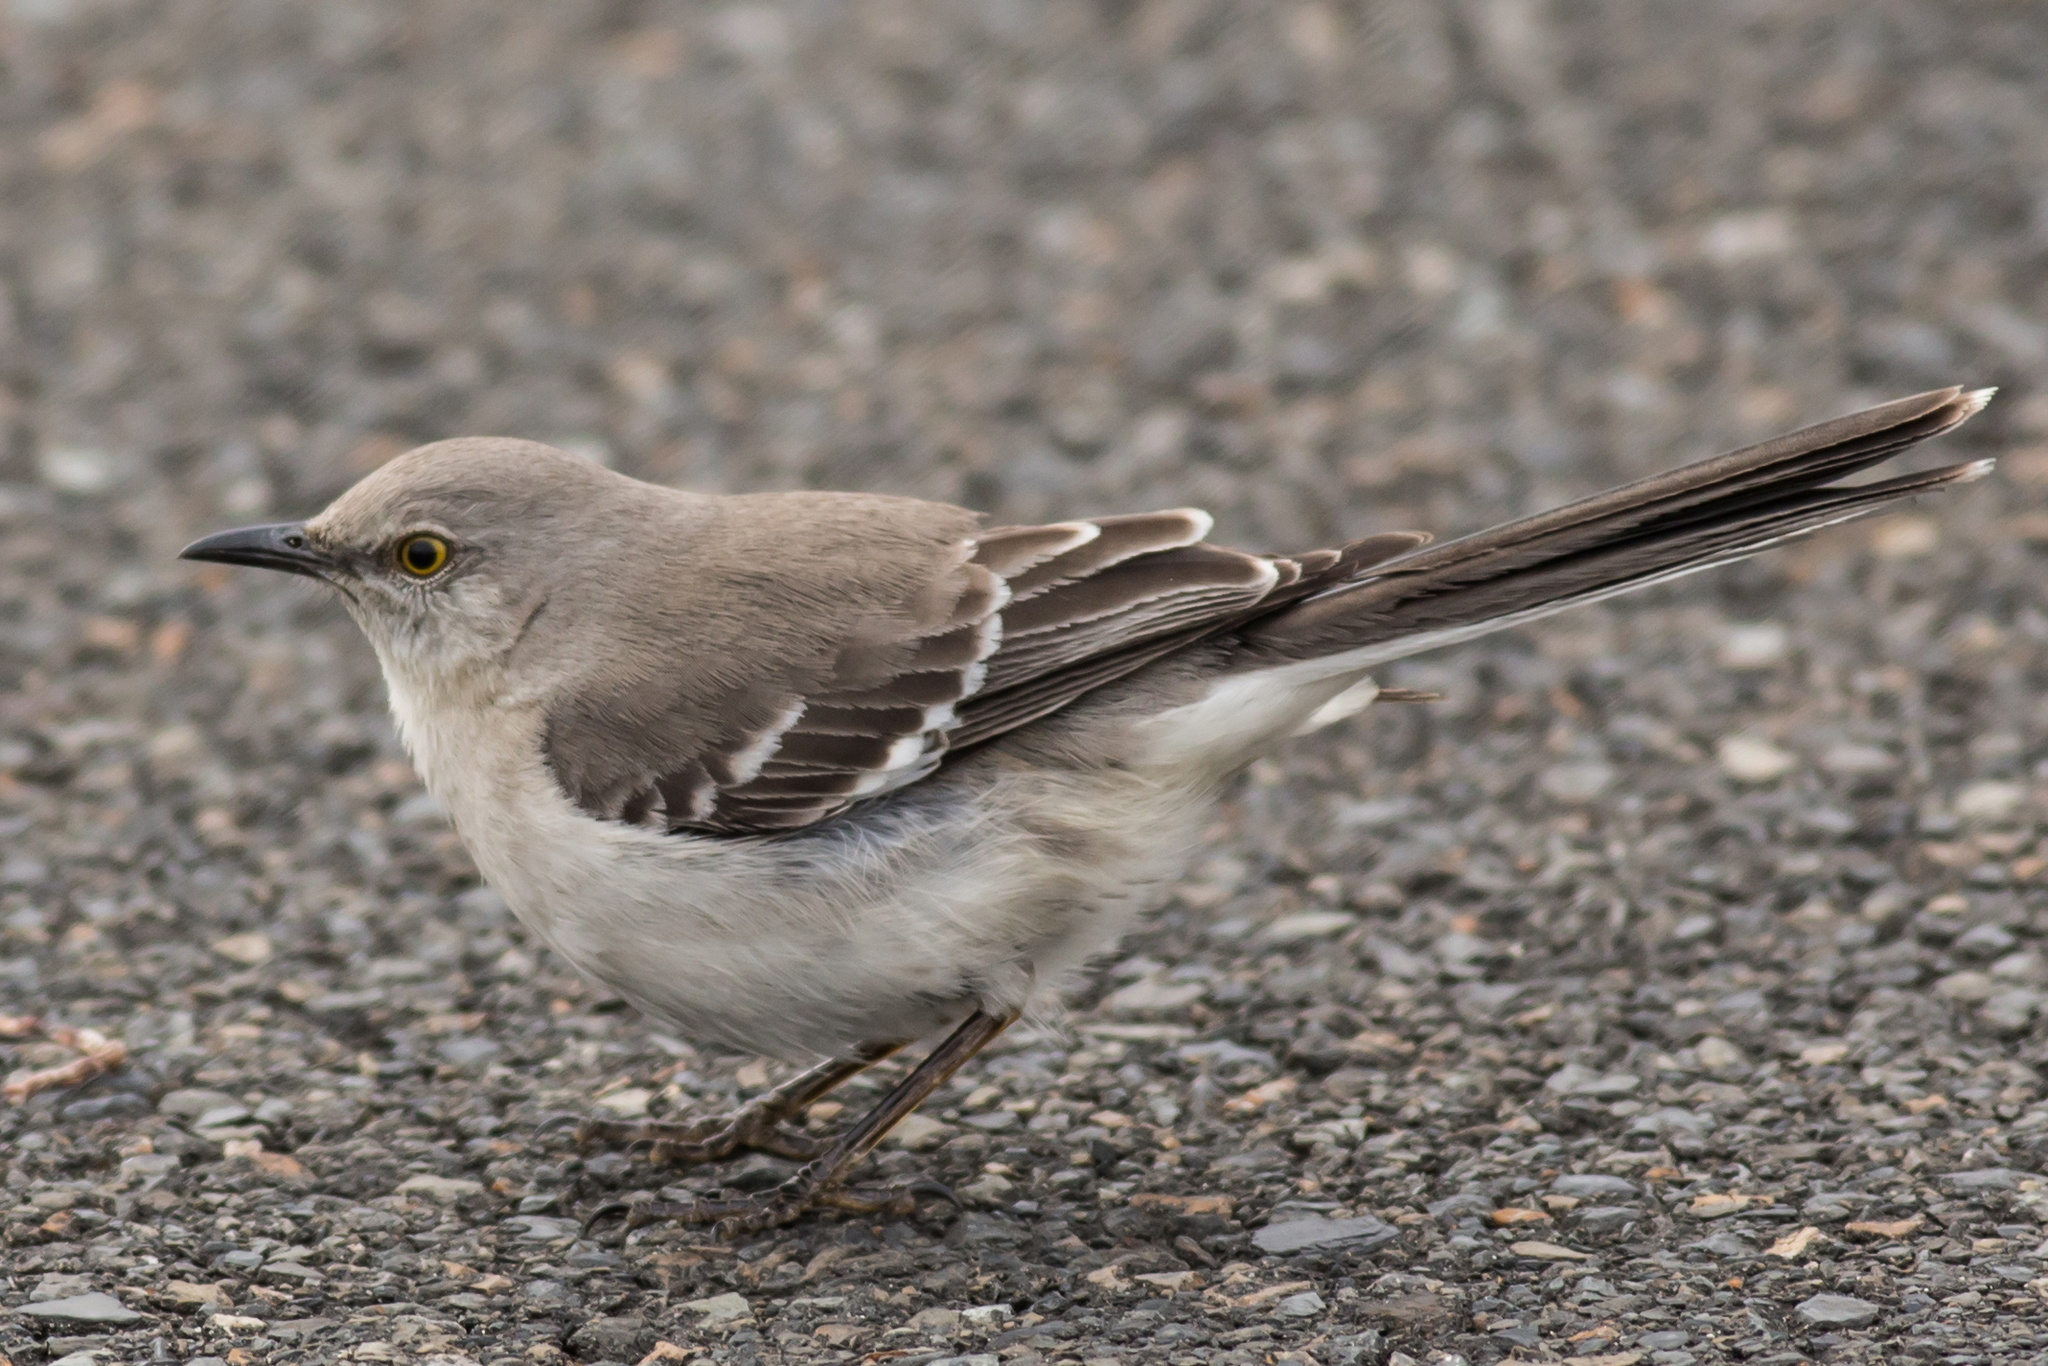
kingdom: Animalia
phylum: Chordata
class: Aves
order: Passeriformes
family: Mimidae
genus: Mimus
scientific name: Mimus polyglottos
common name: Northern mockingbird
